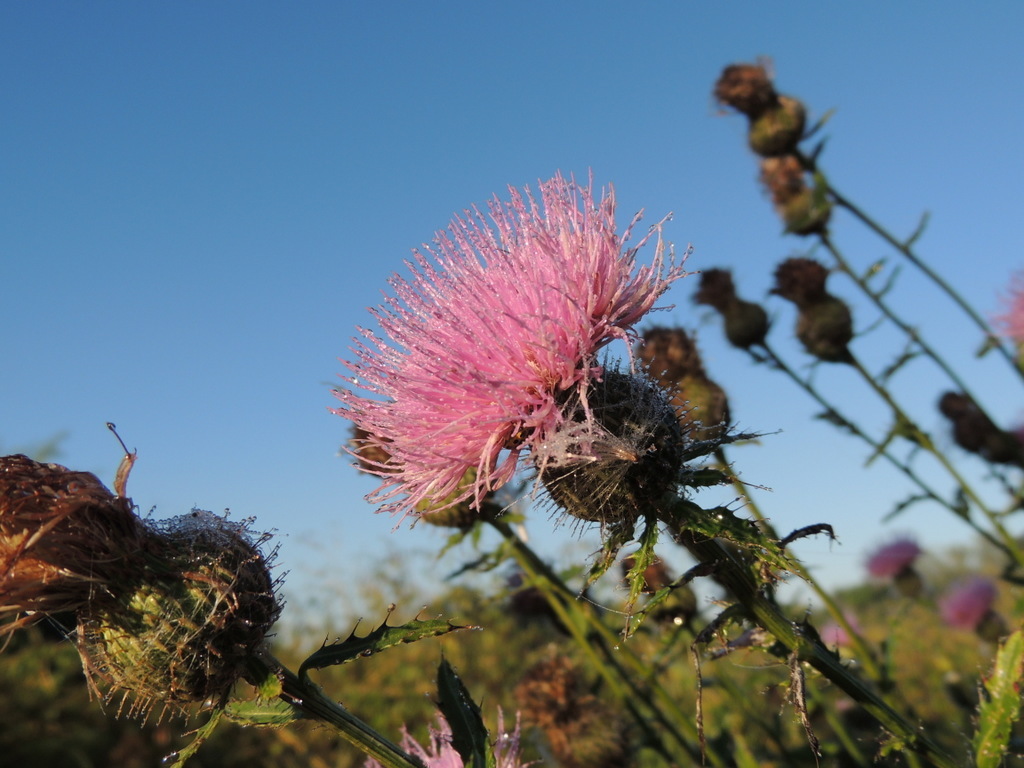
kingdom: Plantae
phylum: Tracheophyta
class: Magnoliopsida
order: Asterales
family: Asteraceae
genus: Cirsium
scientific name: Cirsium altissimum
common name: Roadside thistle
